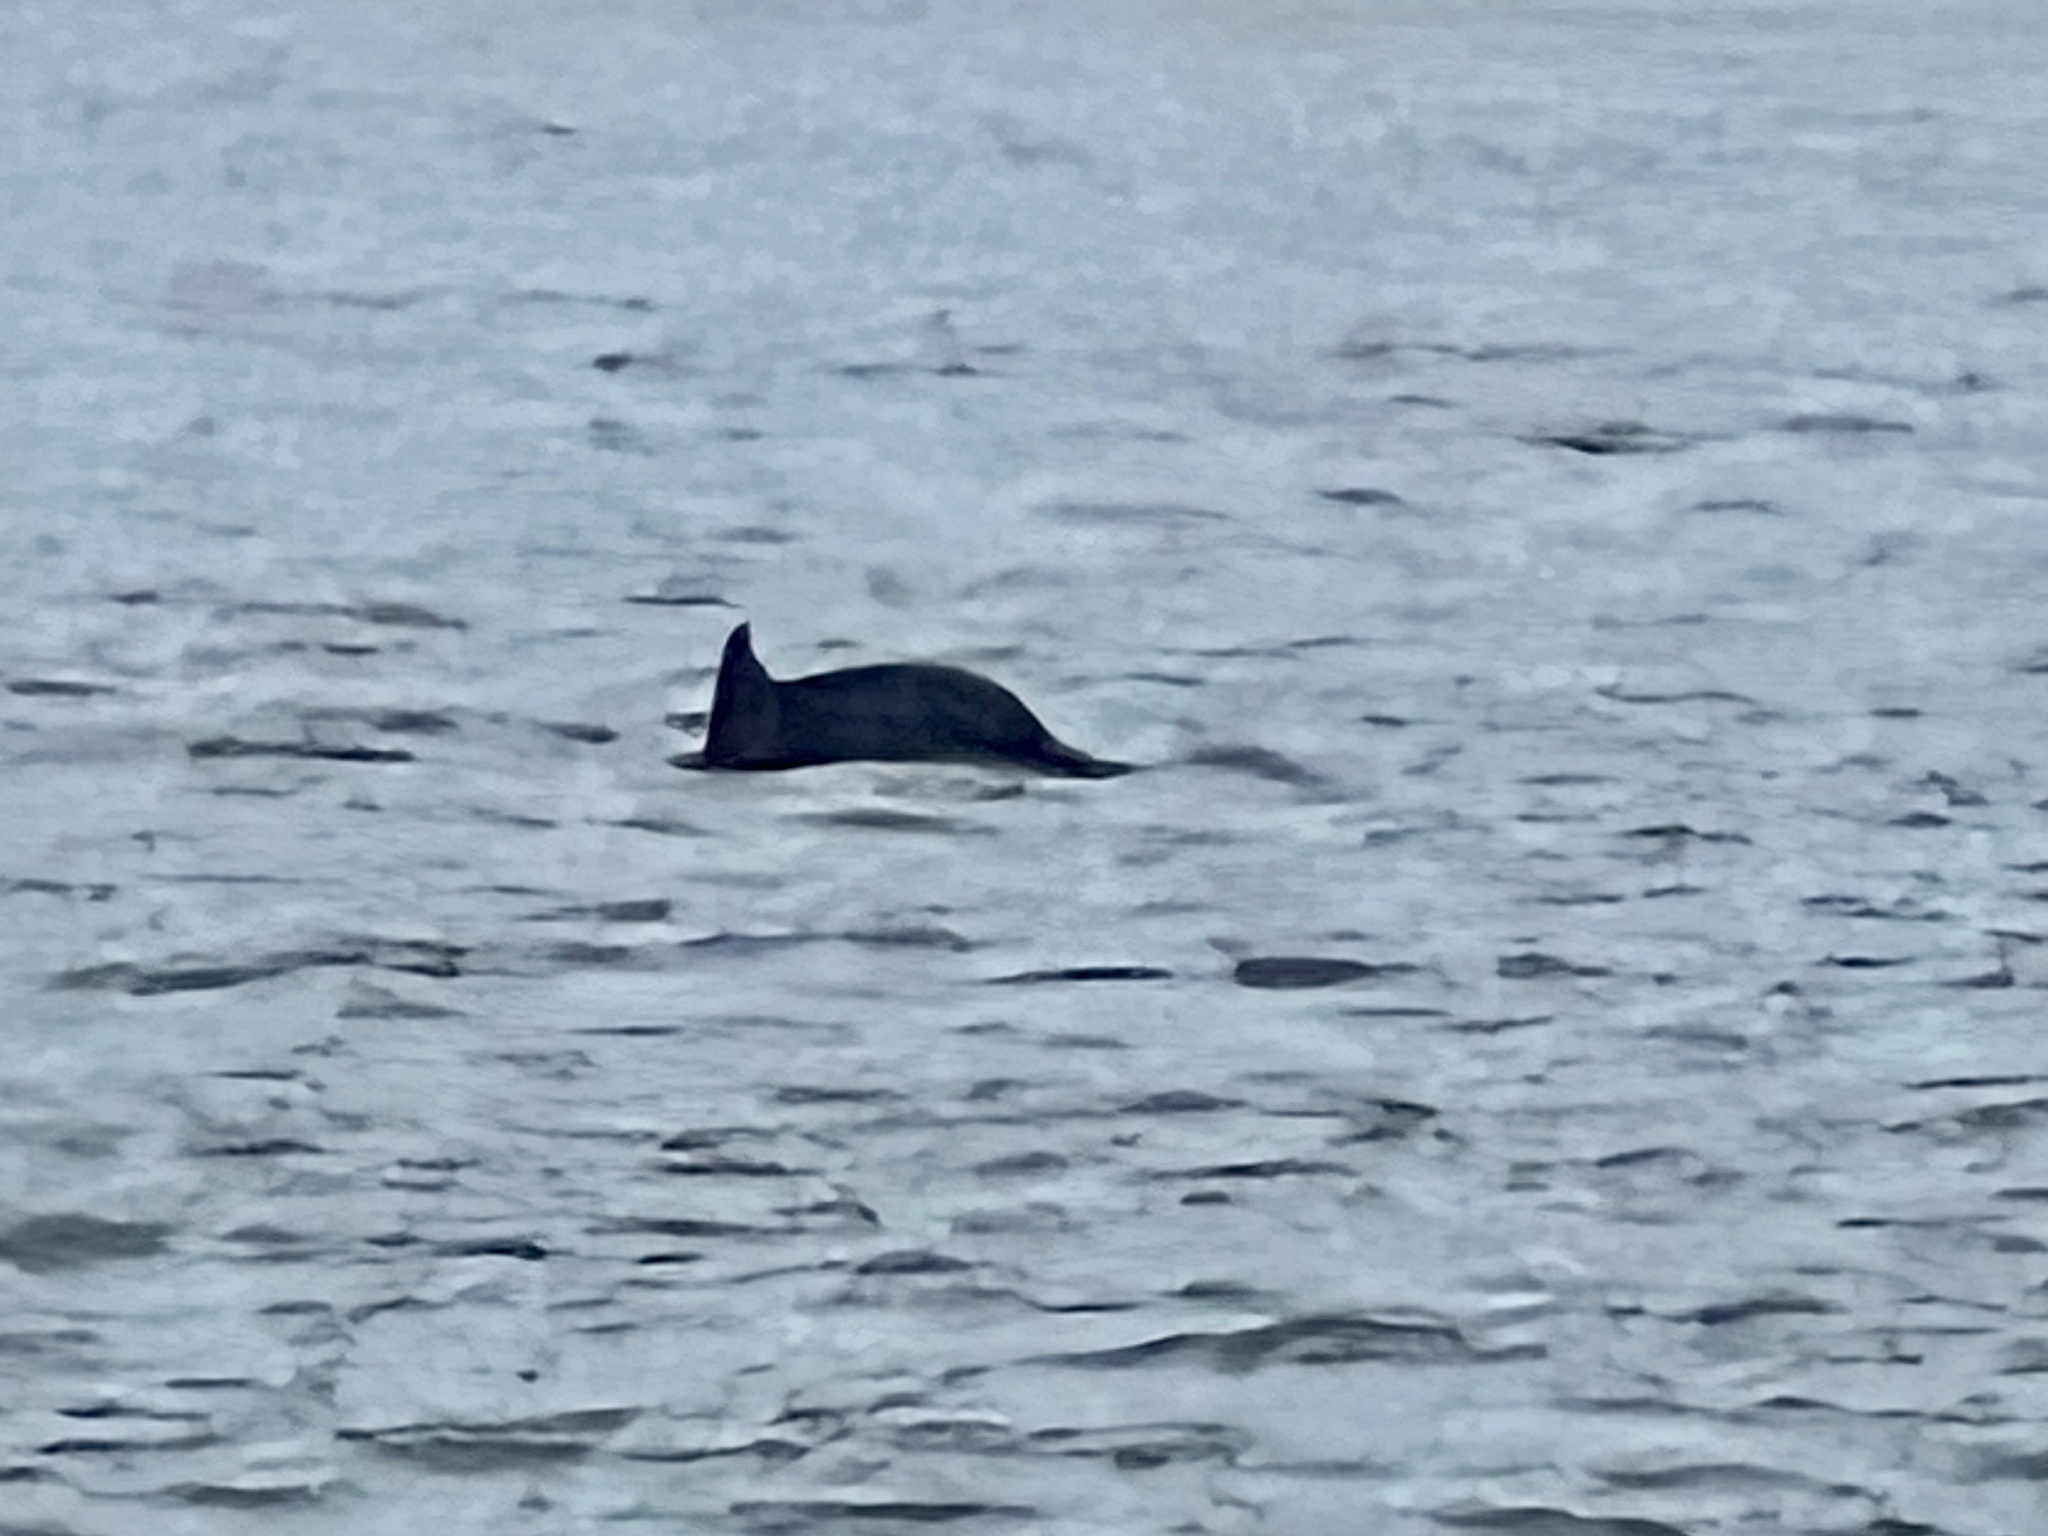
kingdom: Animalia
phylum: Chordata
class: Mammalia
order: Cetacea
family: Delphinidae
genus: Tursiops
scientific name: Tursiops truncatus
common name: Bottlenose dolphin
